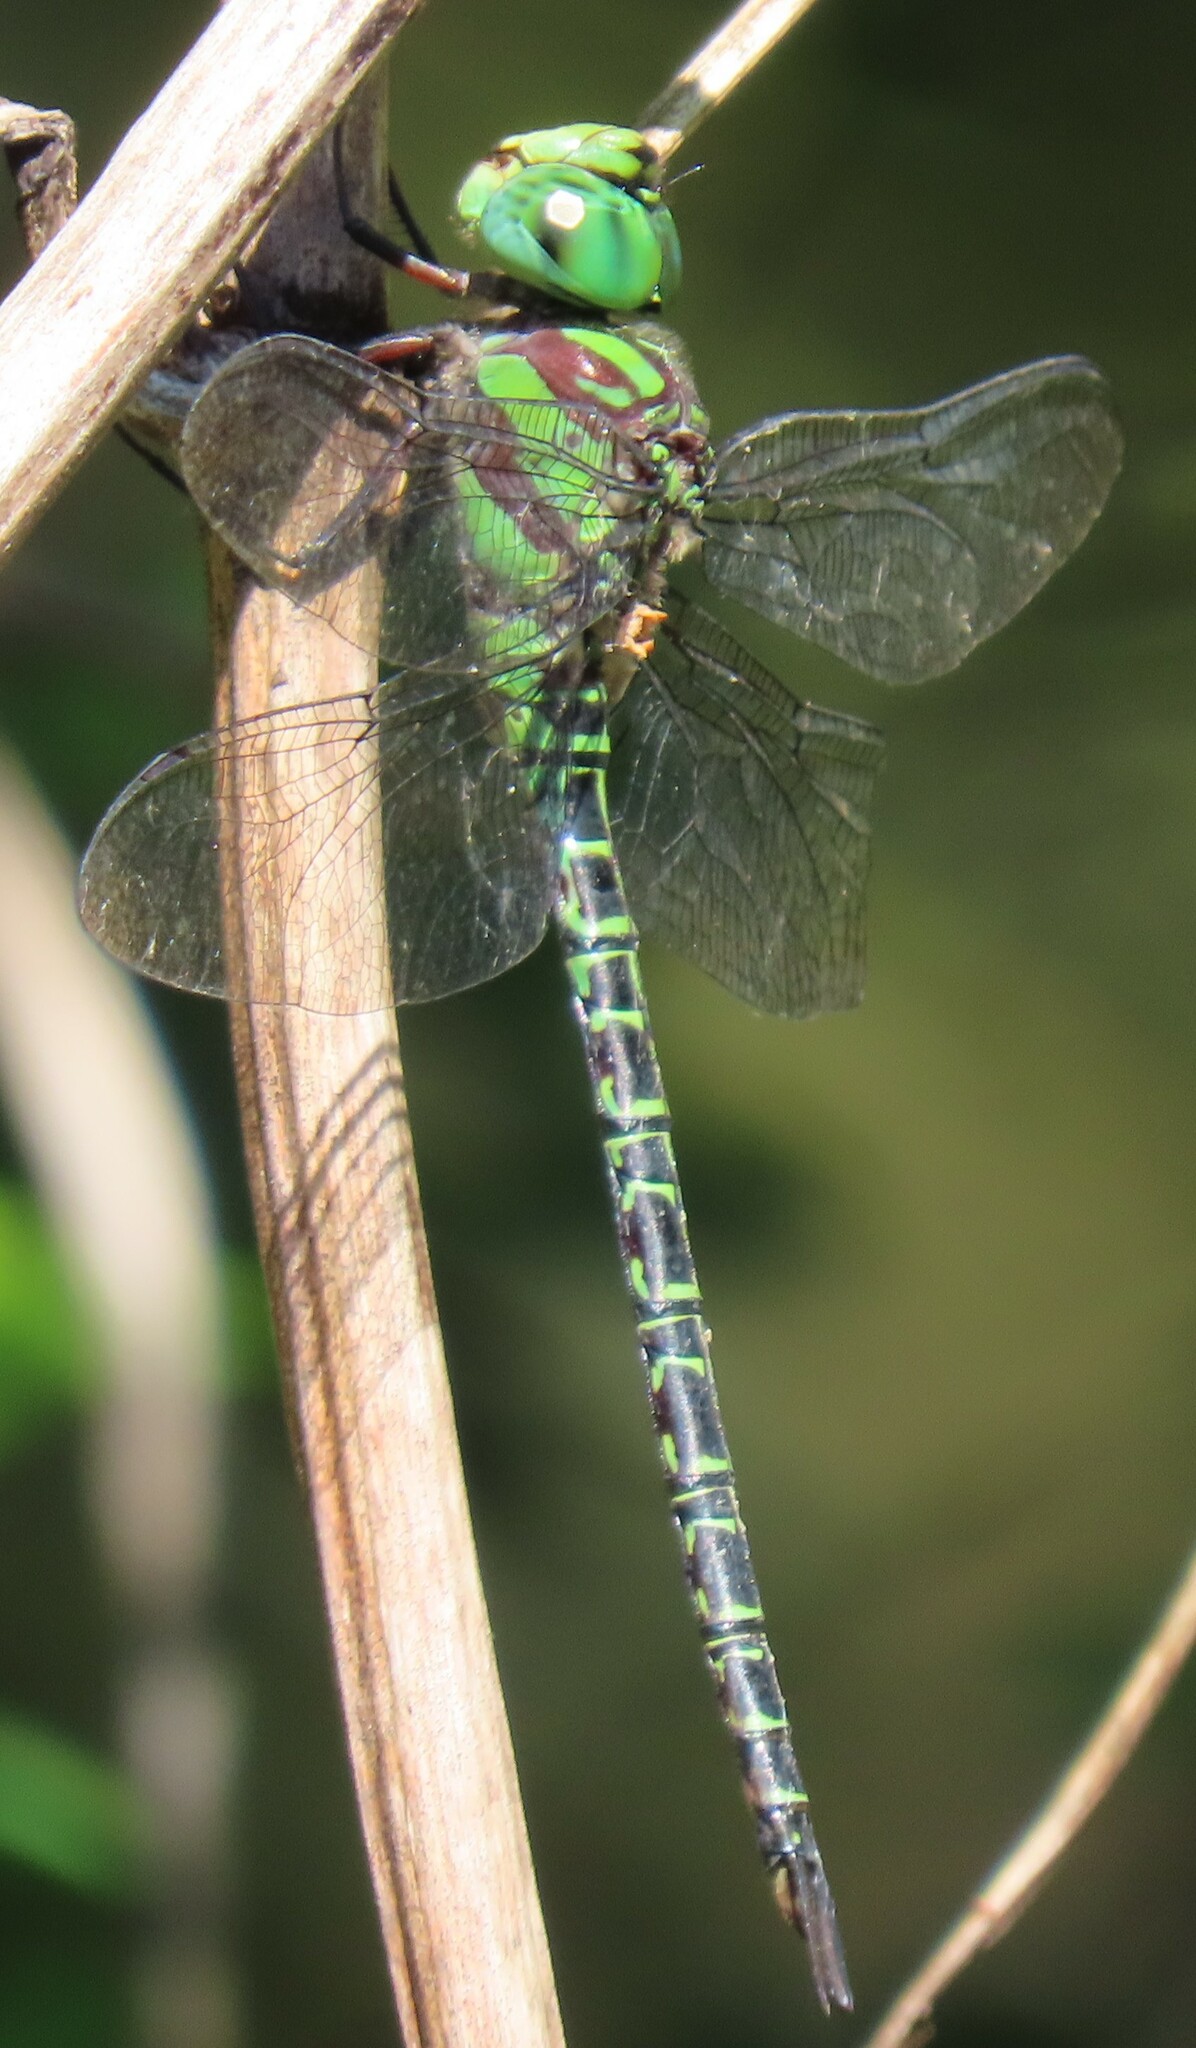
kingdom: Animalia
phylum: Arthropoda
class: Insecta
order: Odonata
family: Aeshnidae
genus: Coryphaeschna
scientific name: Coryphaeschna ingens
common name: Regal darner
